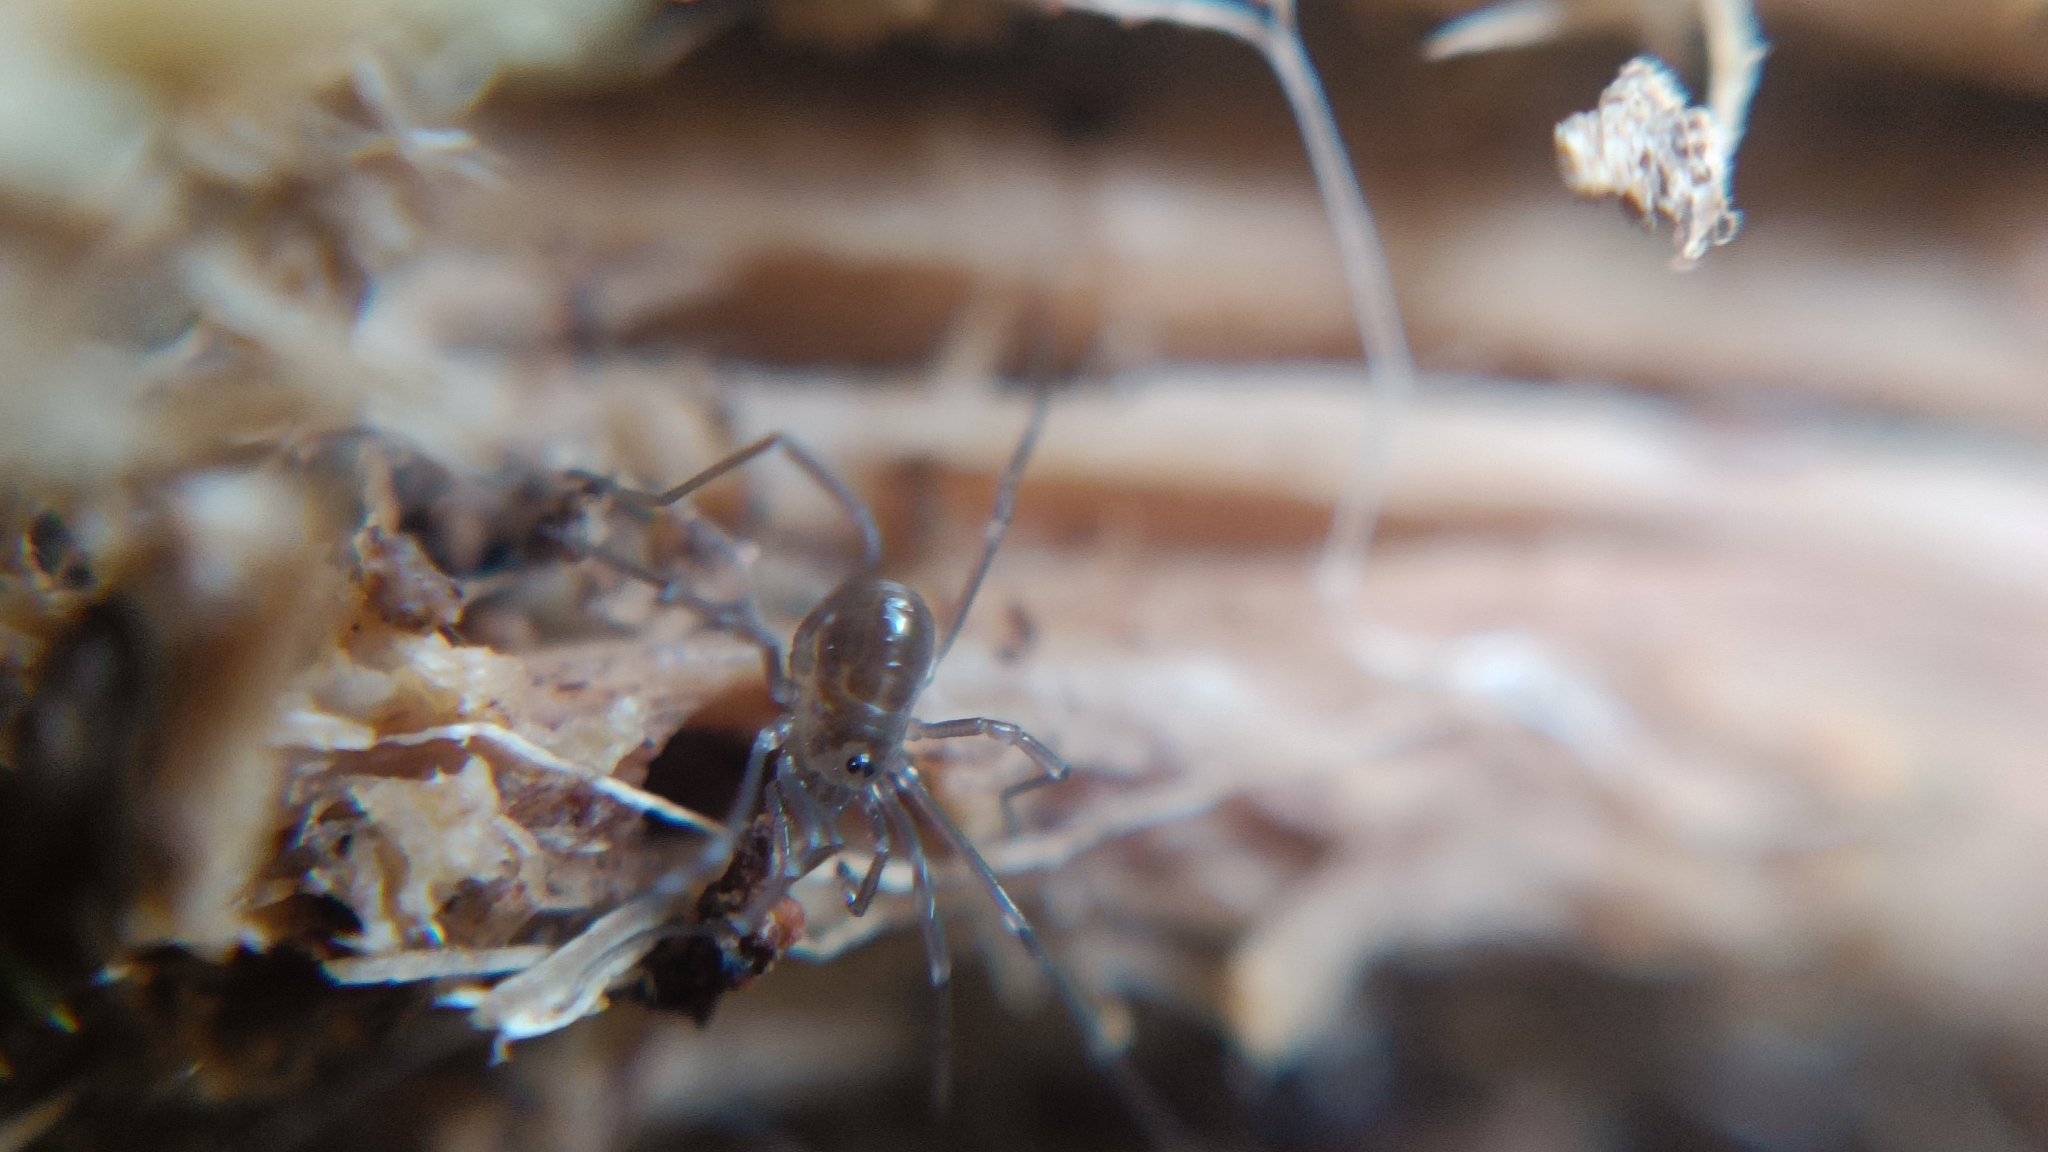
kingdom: Animalia
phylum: Arthropoda
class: Arachnida
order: Opiliones
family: Nemastomatidae
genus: Mitostoma
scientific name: Mitostoma chrysomelas
